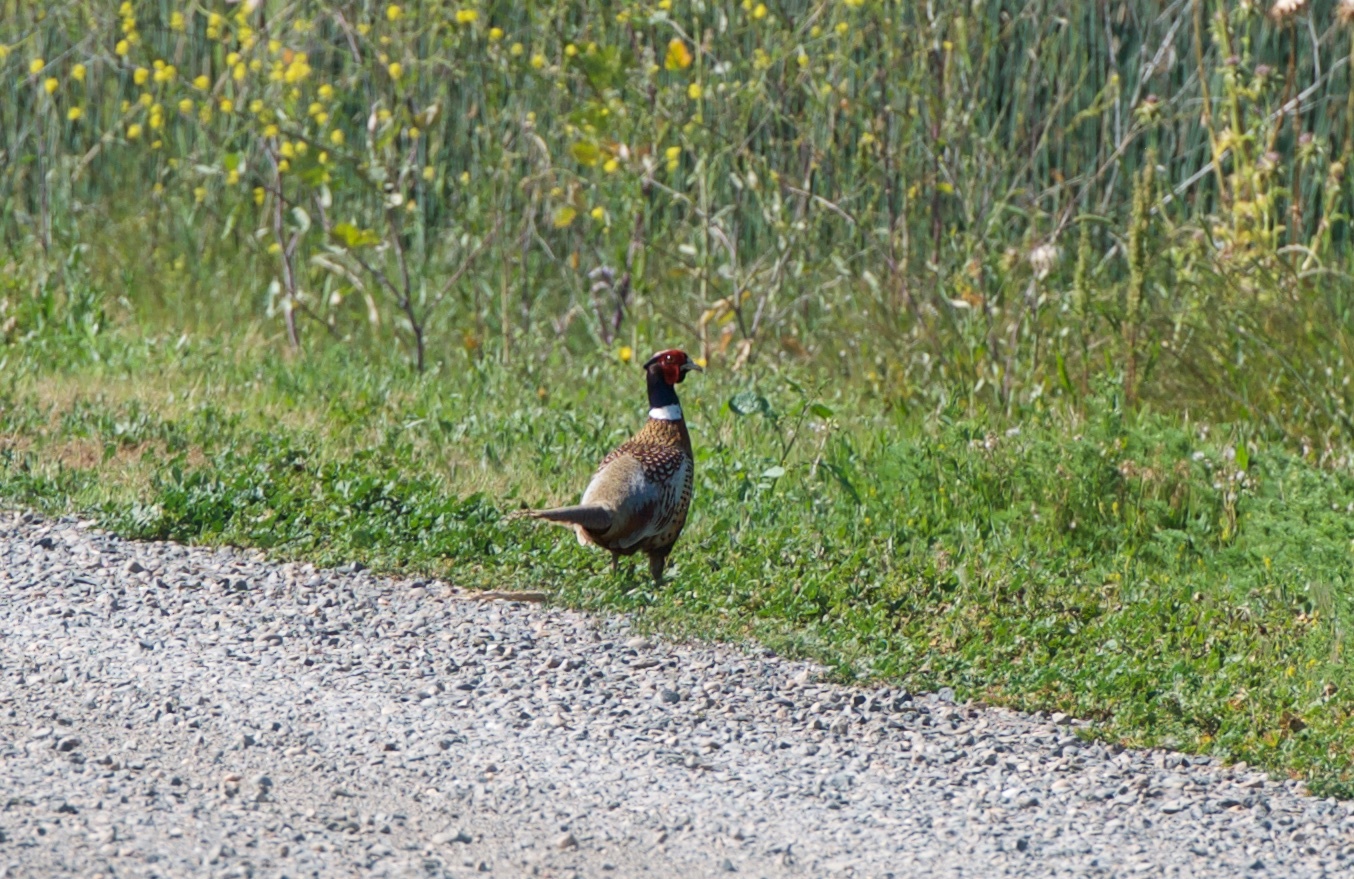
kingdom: Animalia
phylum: Chordata
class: Aves
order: Galliformes
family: Phasianidae
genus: Phasianus
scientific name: Phasianus colchicus
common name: Common pheasant
